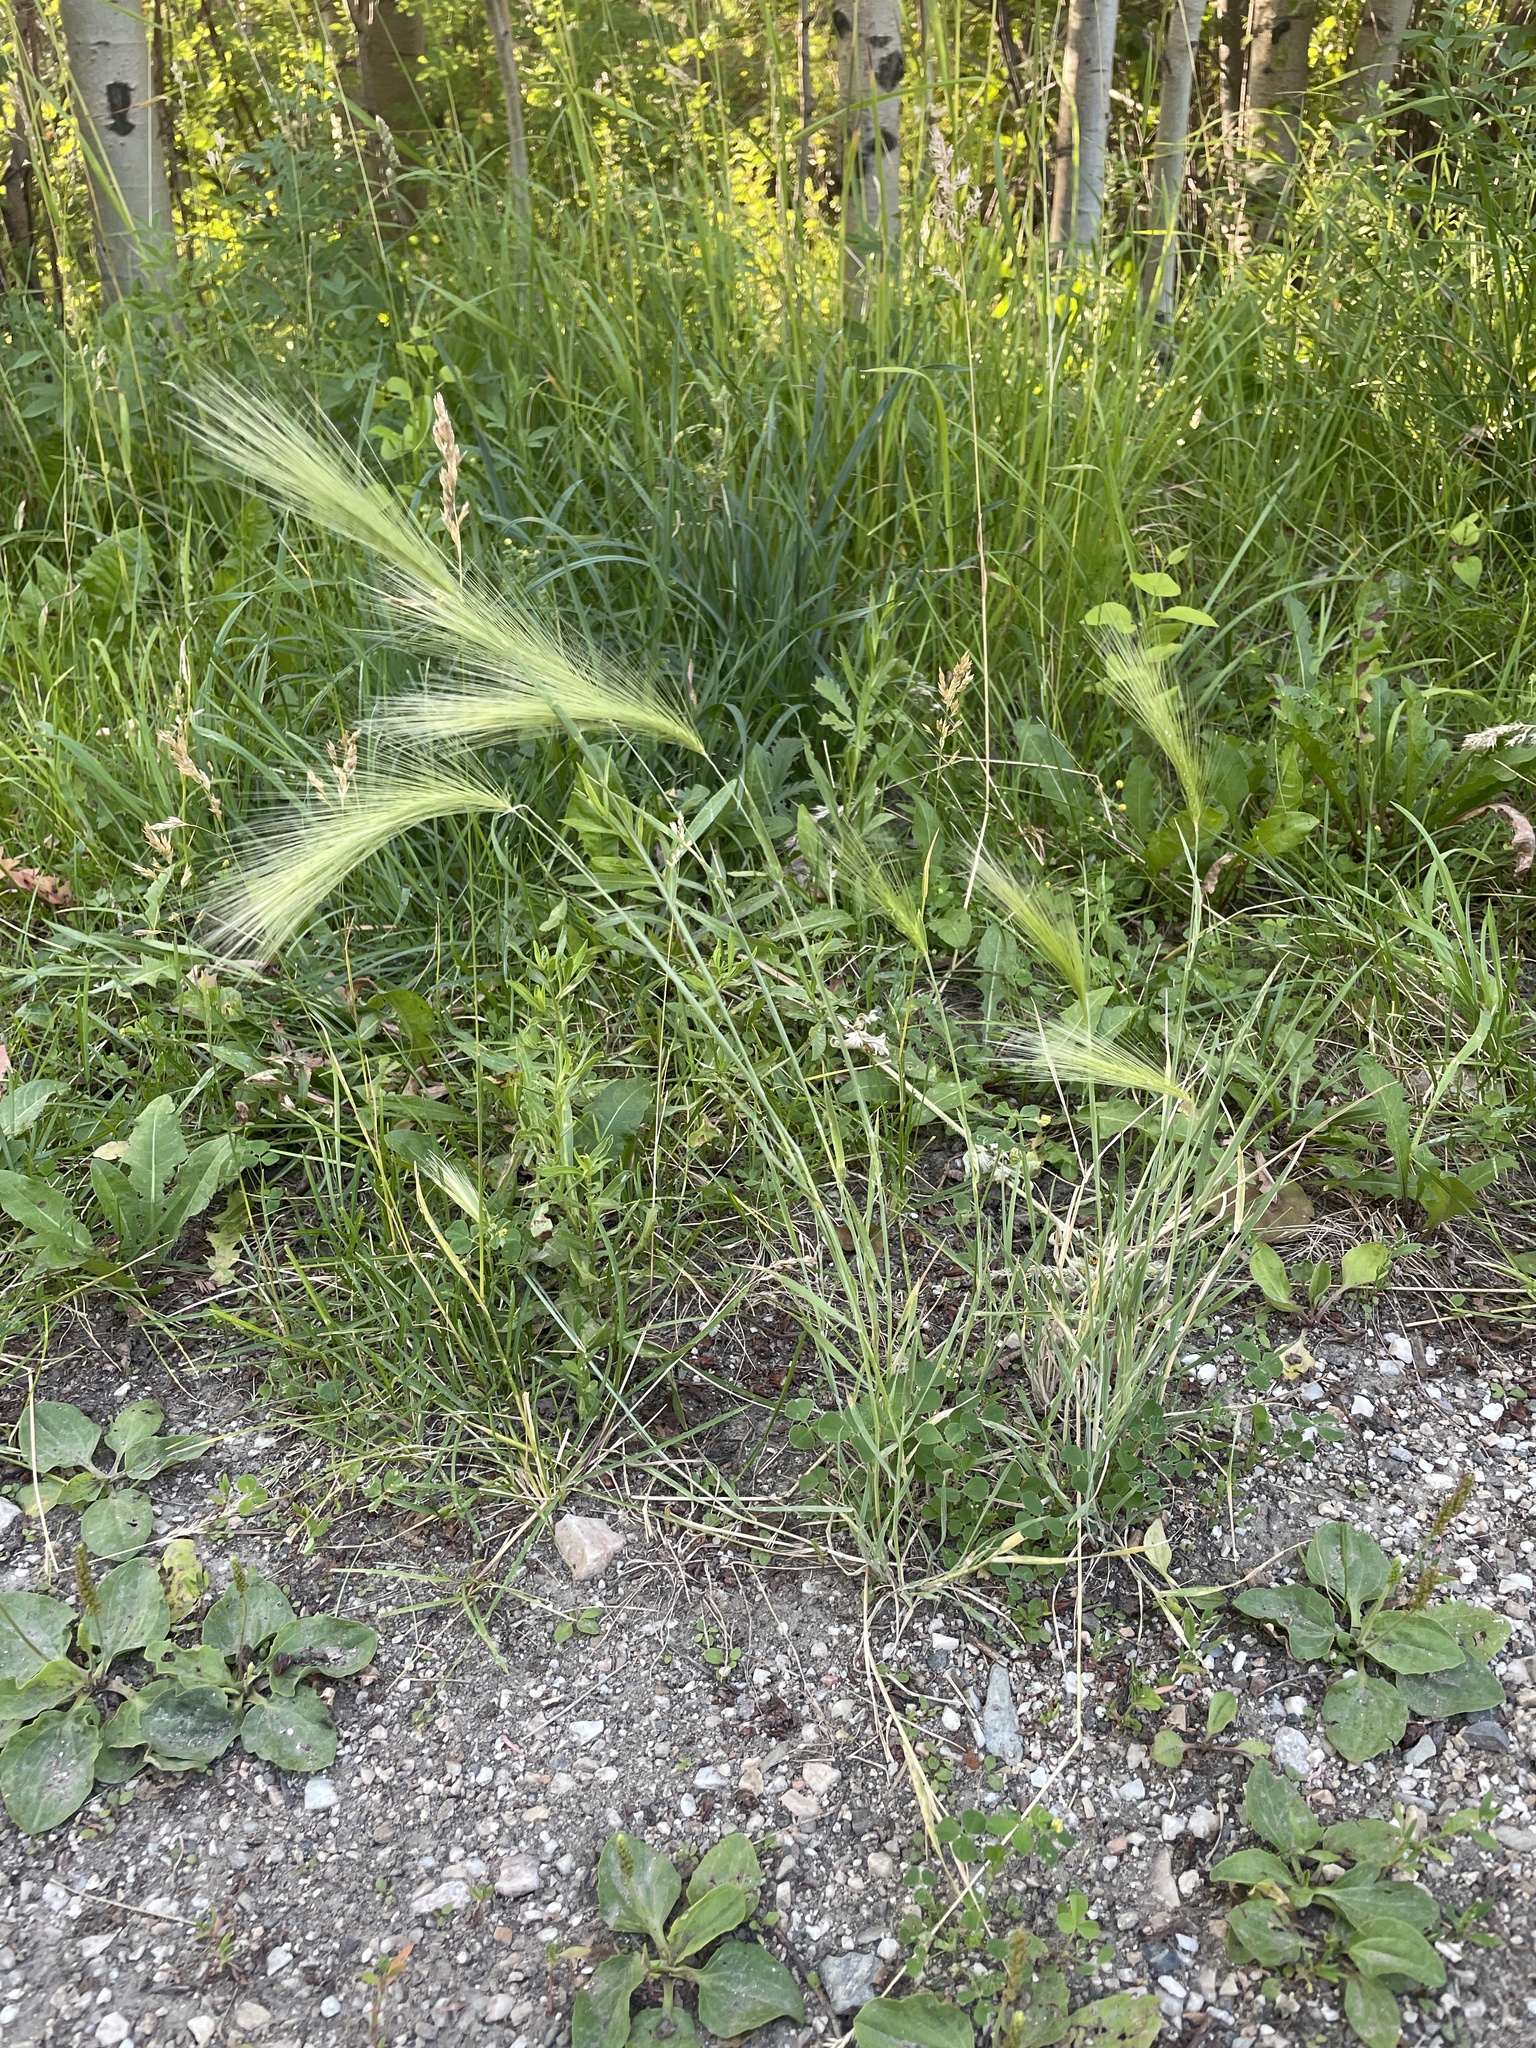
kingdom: Plantae
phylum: Tracheophyta
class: Liliopsida
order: Poales
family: Poaceae
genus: Hordeum
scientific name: Hordeum jubatum
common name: Foxtail barley
